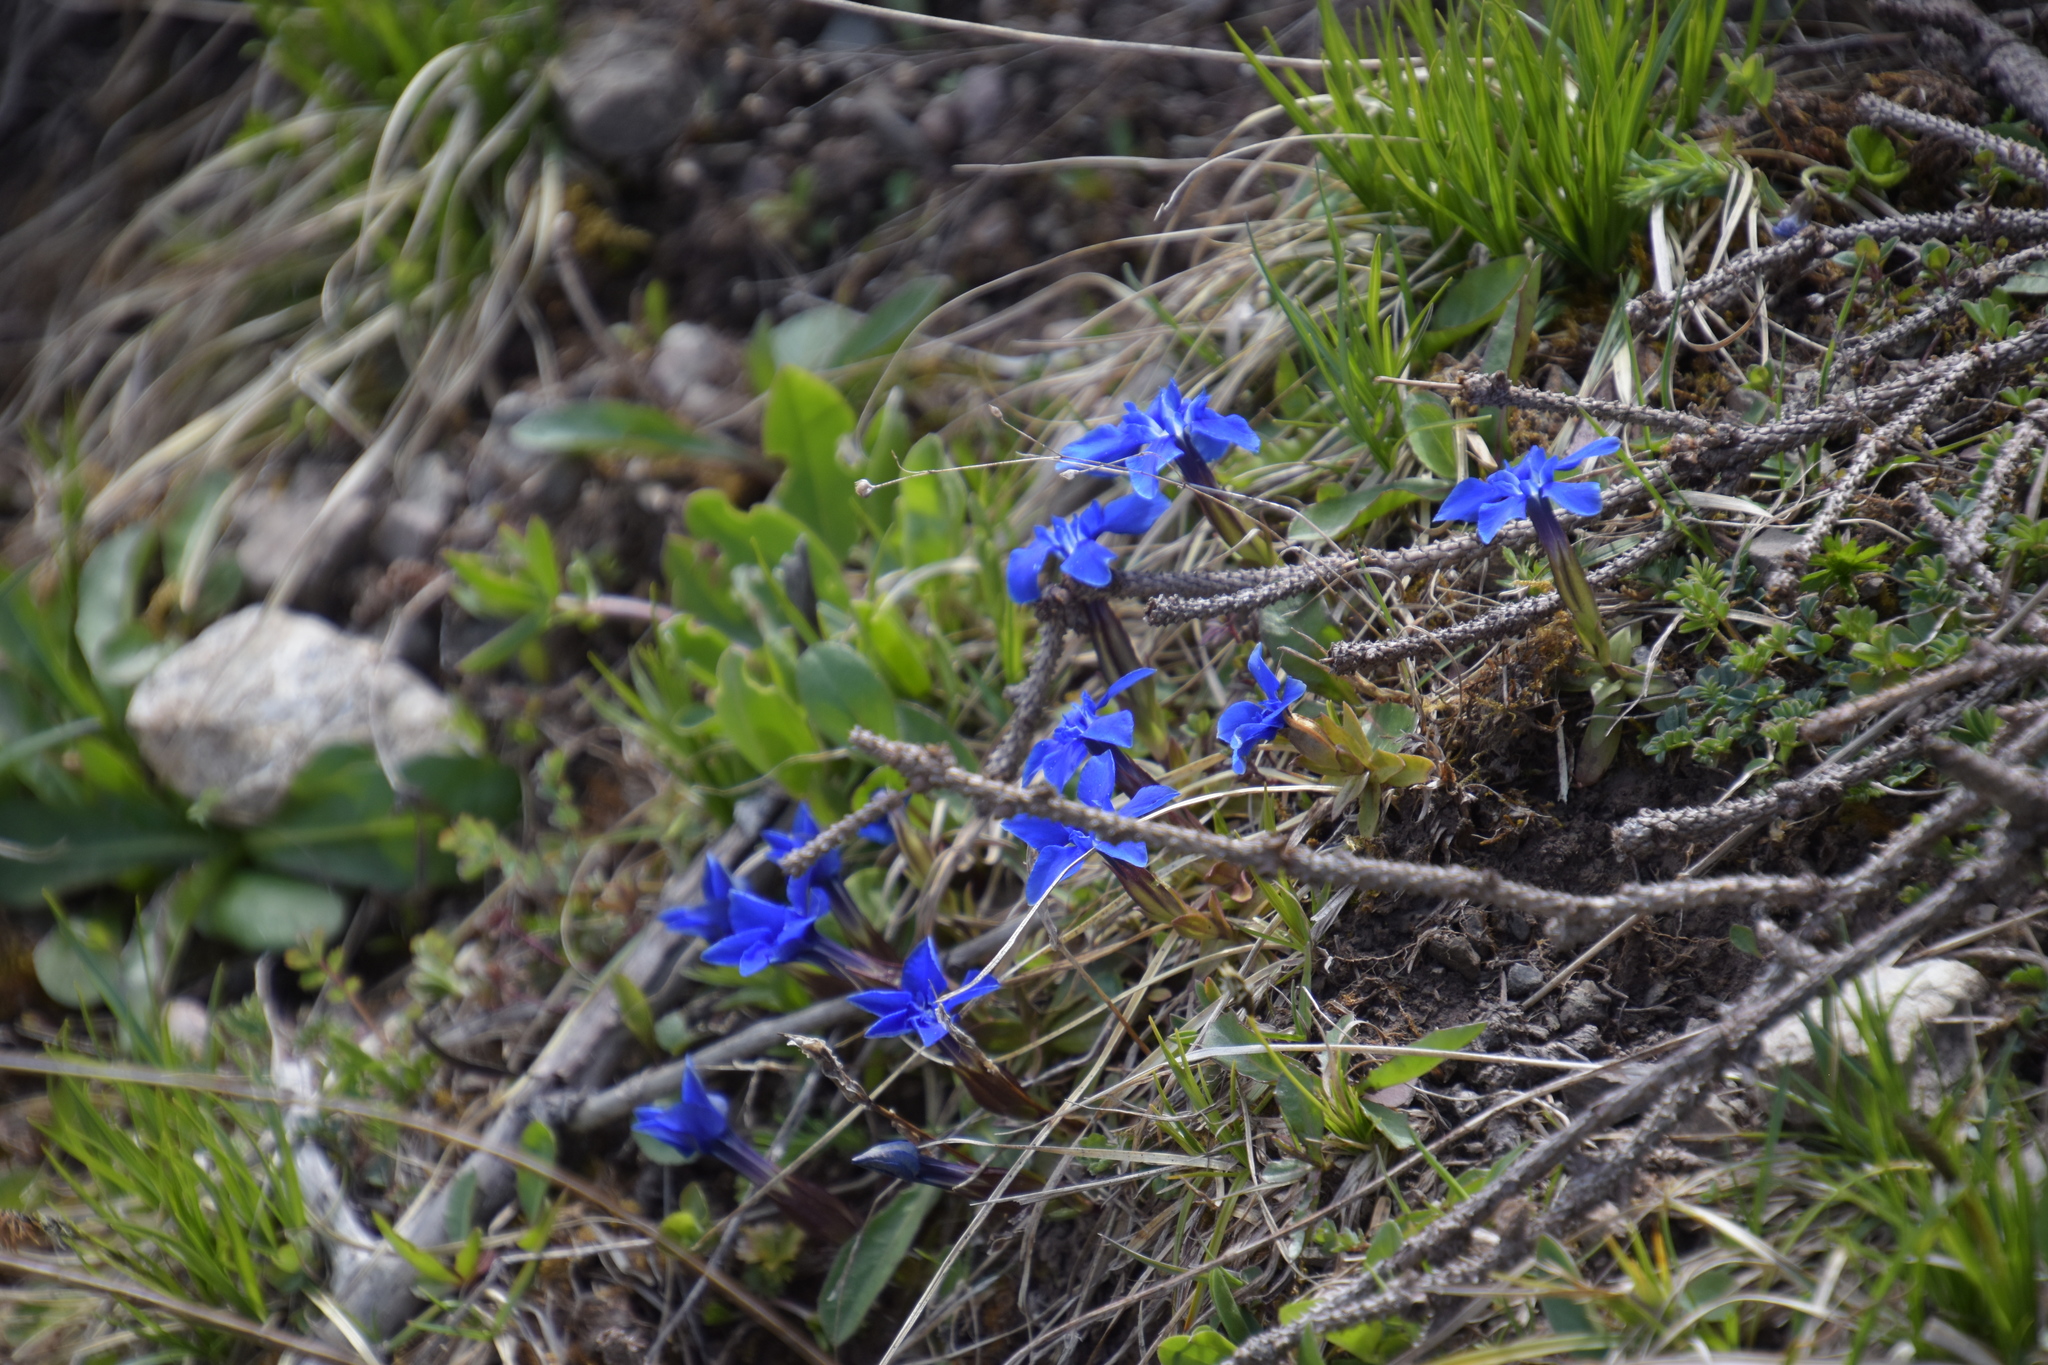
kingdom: Plantae
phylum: Tracheophyta
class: Magnoliopsida
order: Gentianales
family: Gentianaceae
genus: Gentiana
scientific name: Gentiana verna
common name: Spring gentian
